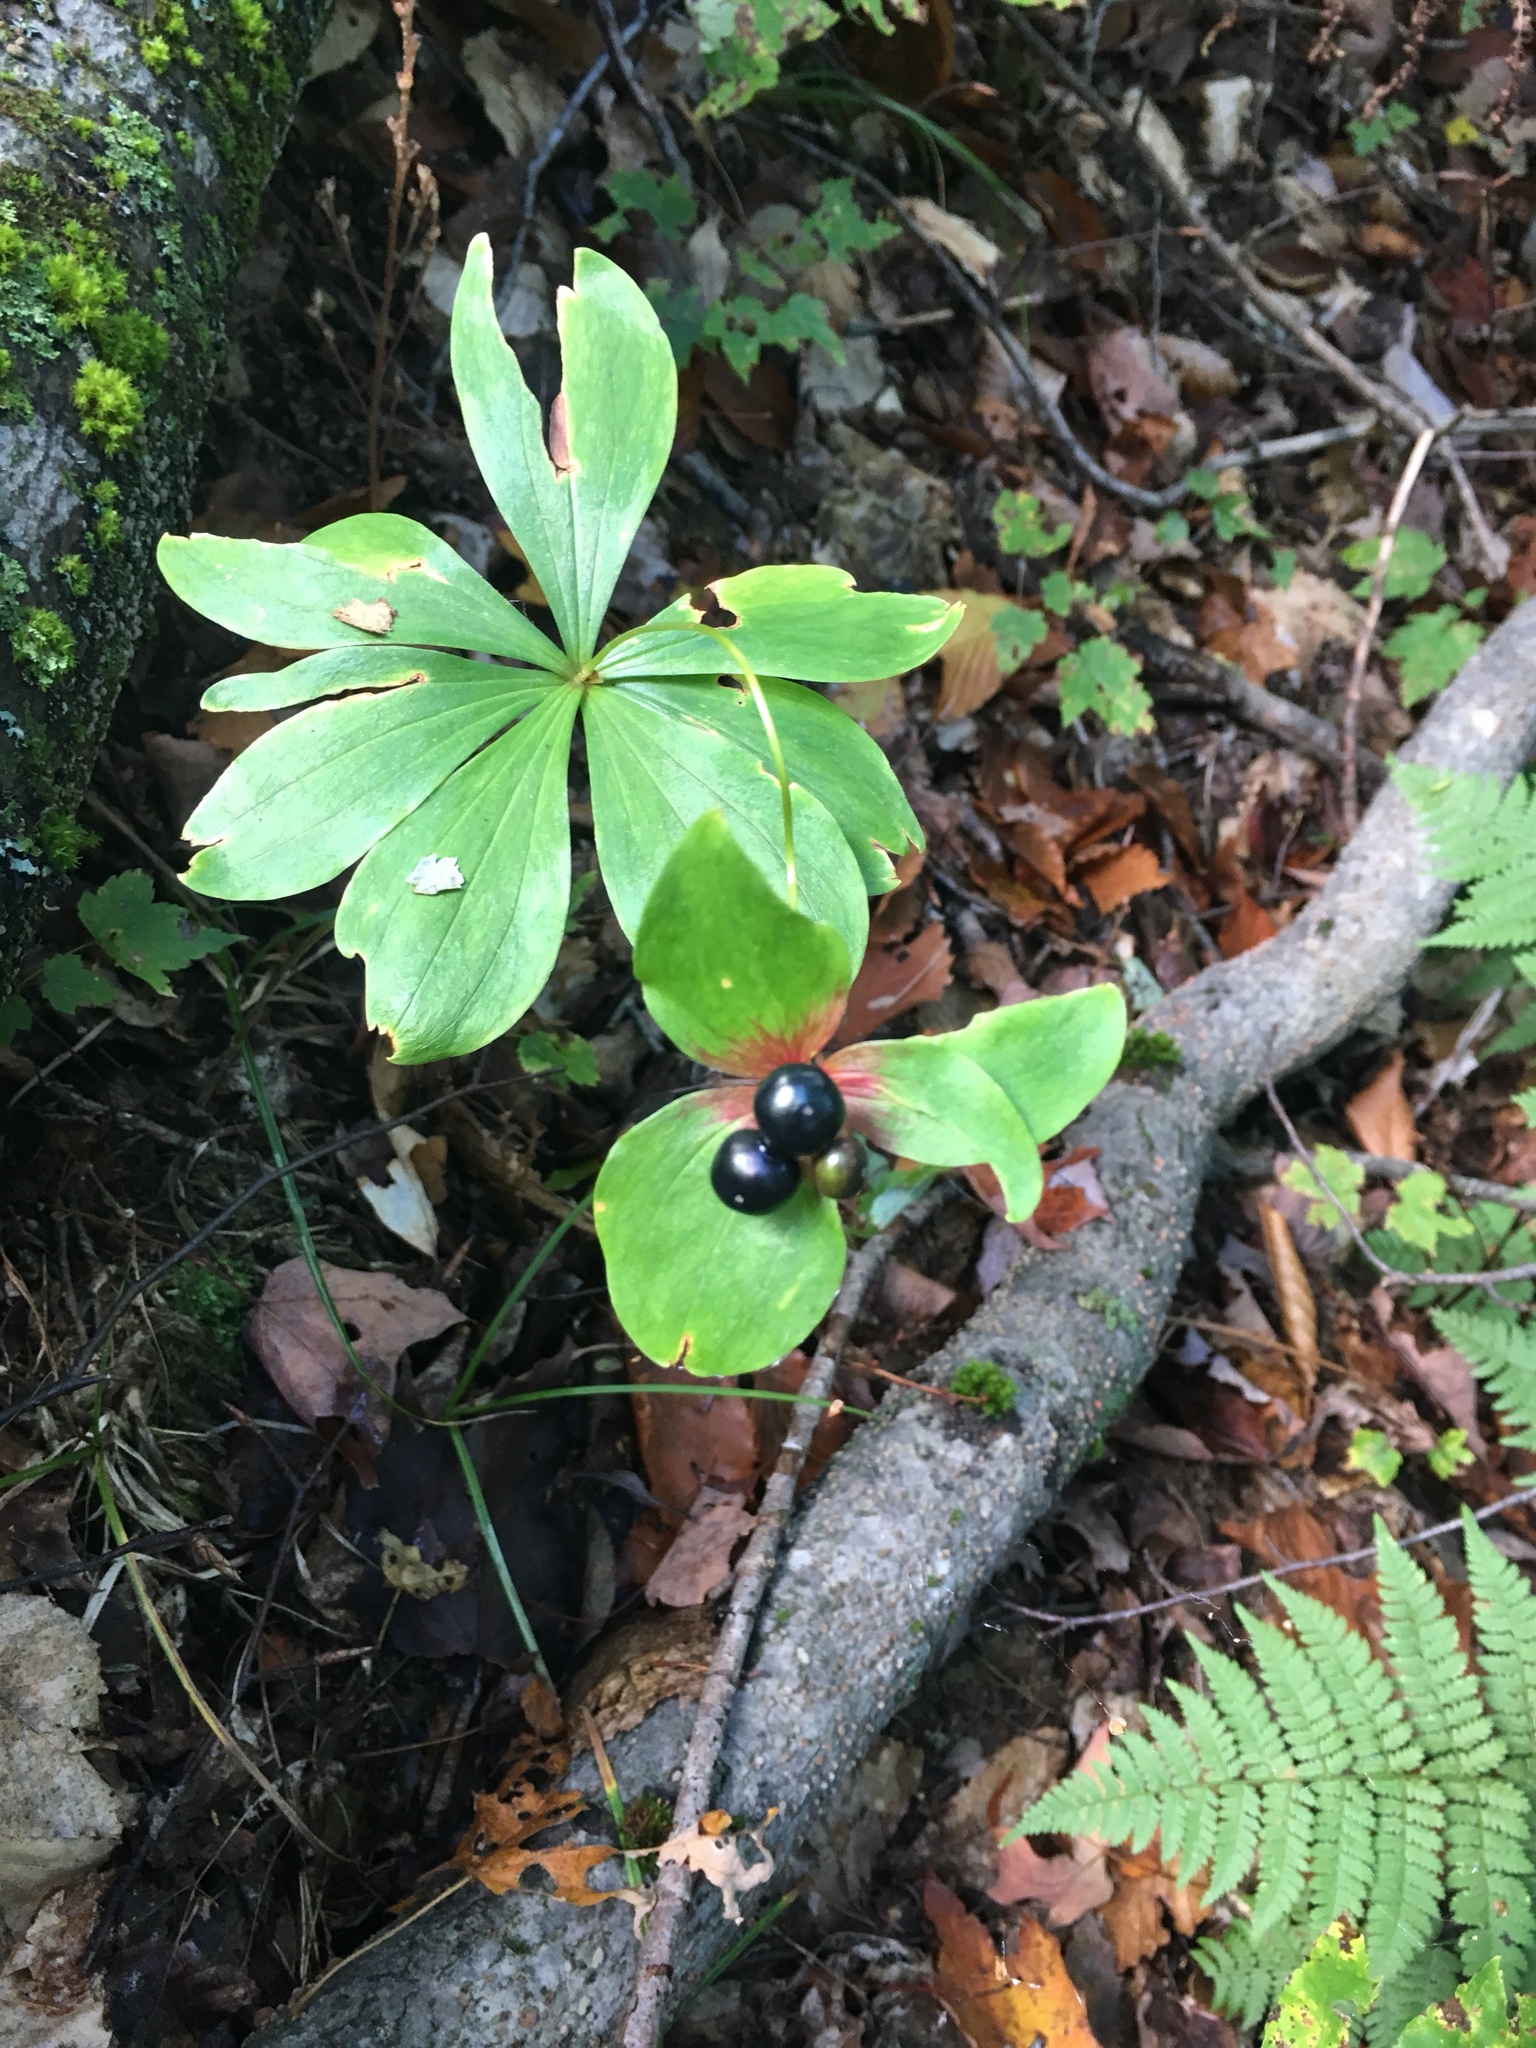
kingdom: Plantae
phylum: Tracheophyta
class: Liliopsida
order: Liliales
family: Liliaceae
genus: Medeola
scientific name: Medeola virginiana
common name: Indian cucumber-root
